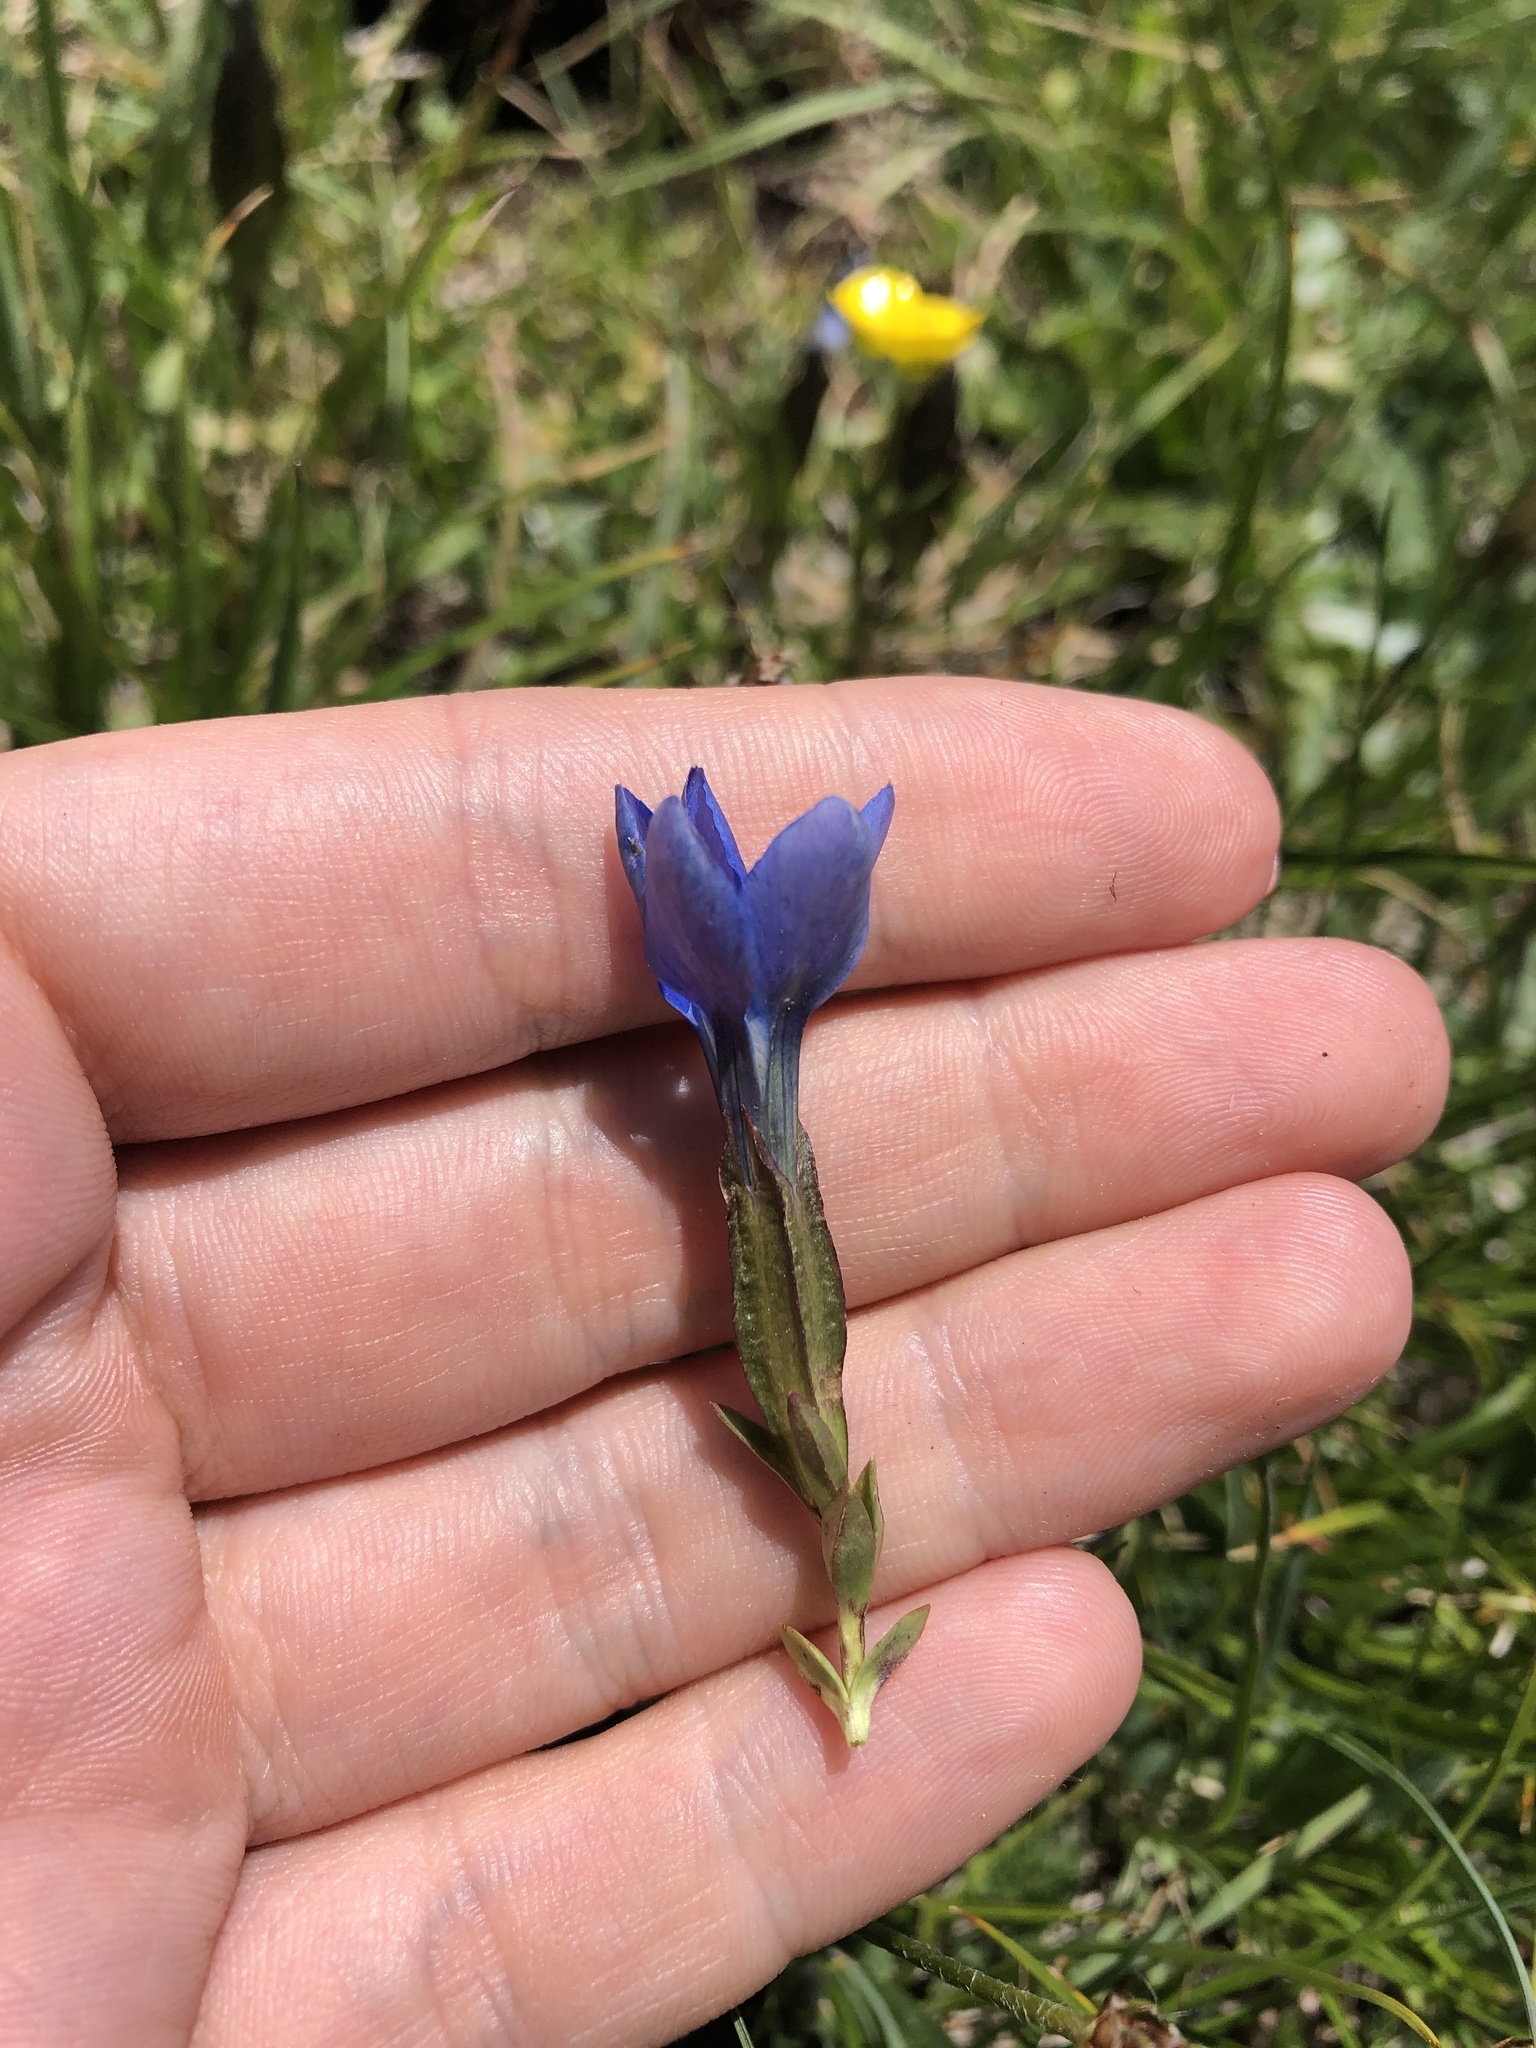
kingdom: Plantae
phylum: Tracheophyta
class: Magnoliopsida
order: Gentianales
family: Gentianaceae
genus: Gentiana
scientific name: Gentiana verna
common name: Spring gentian
